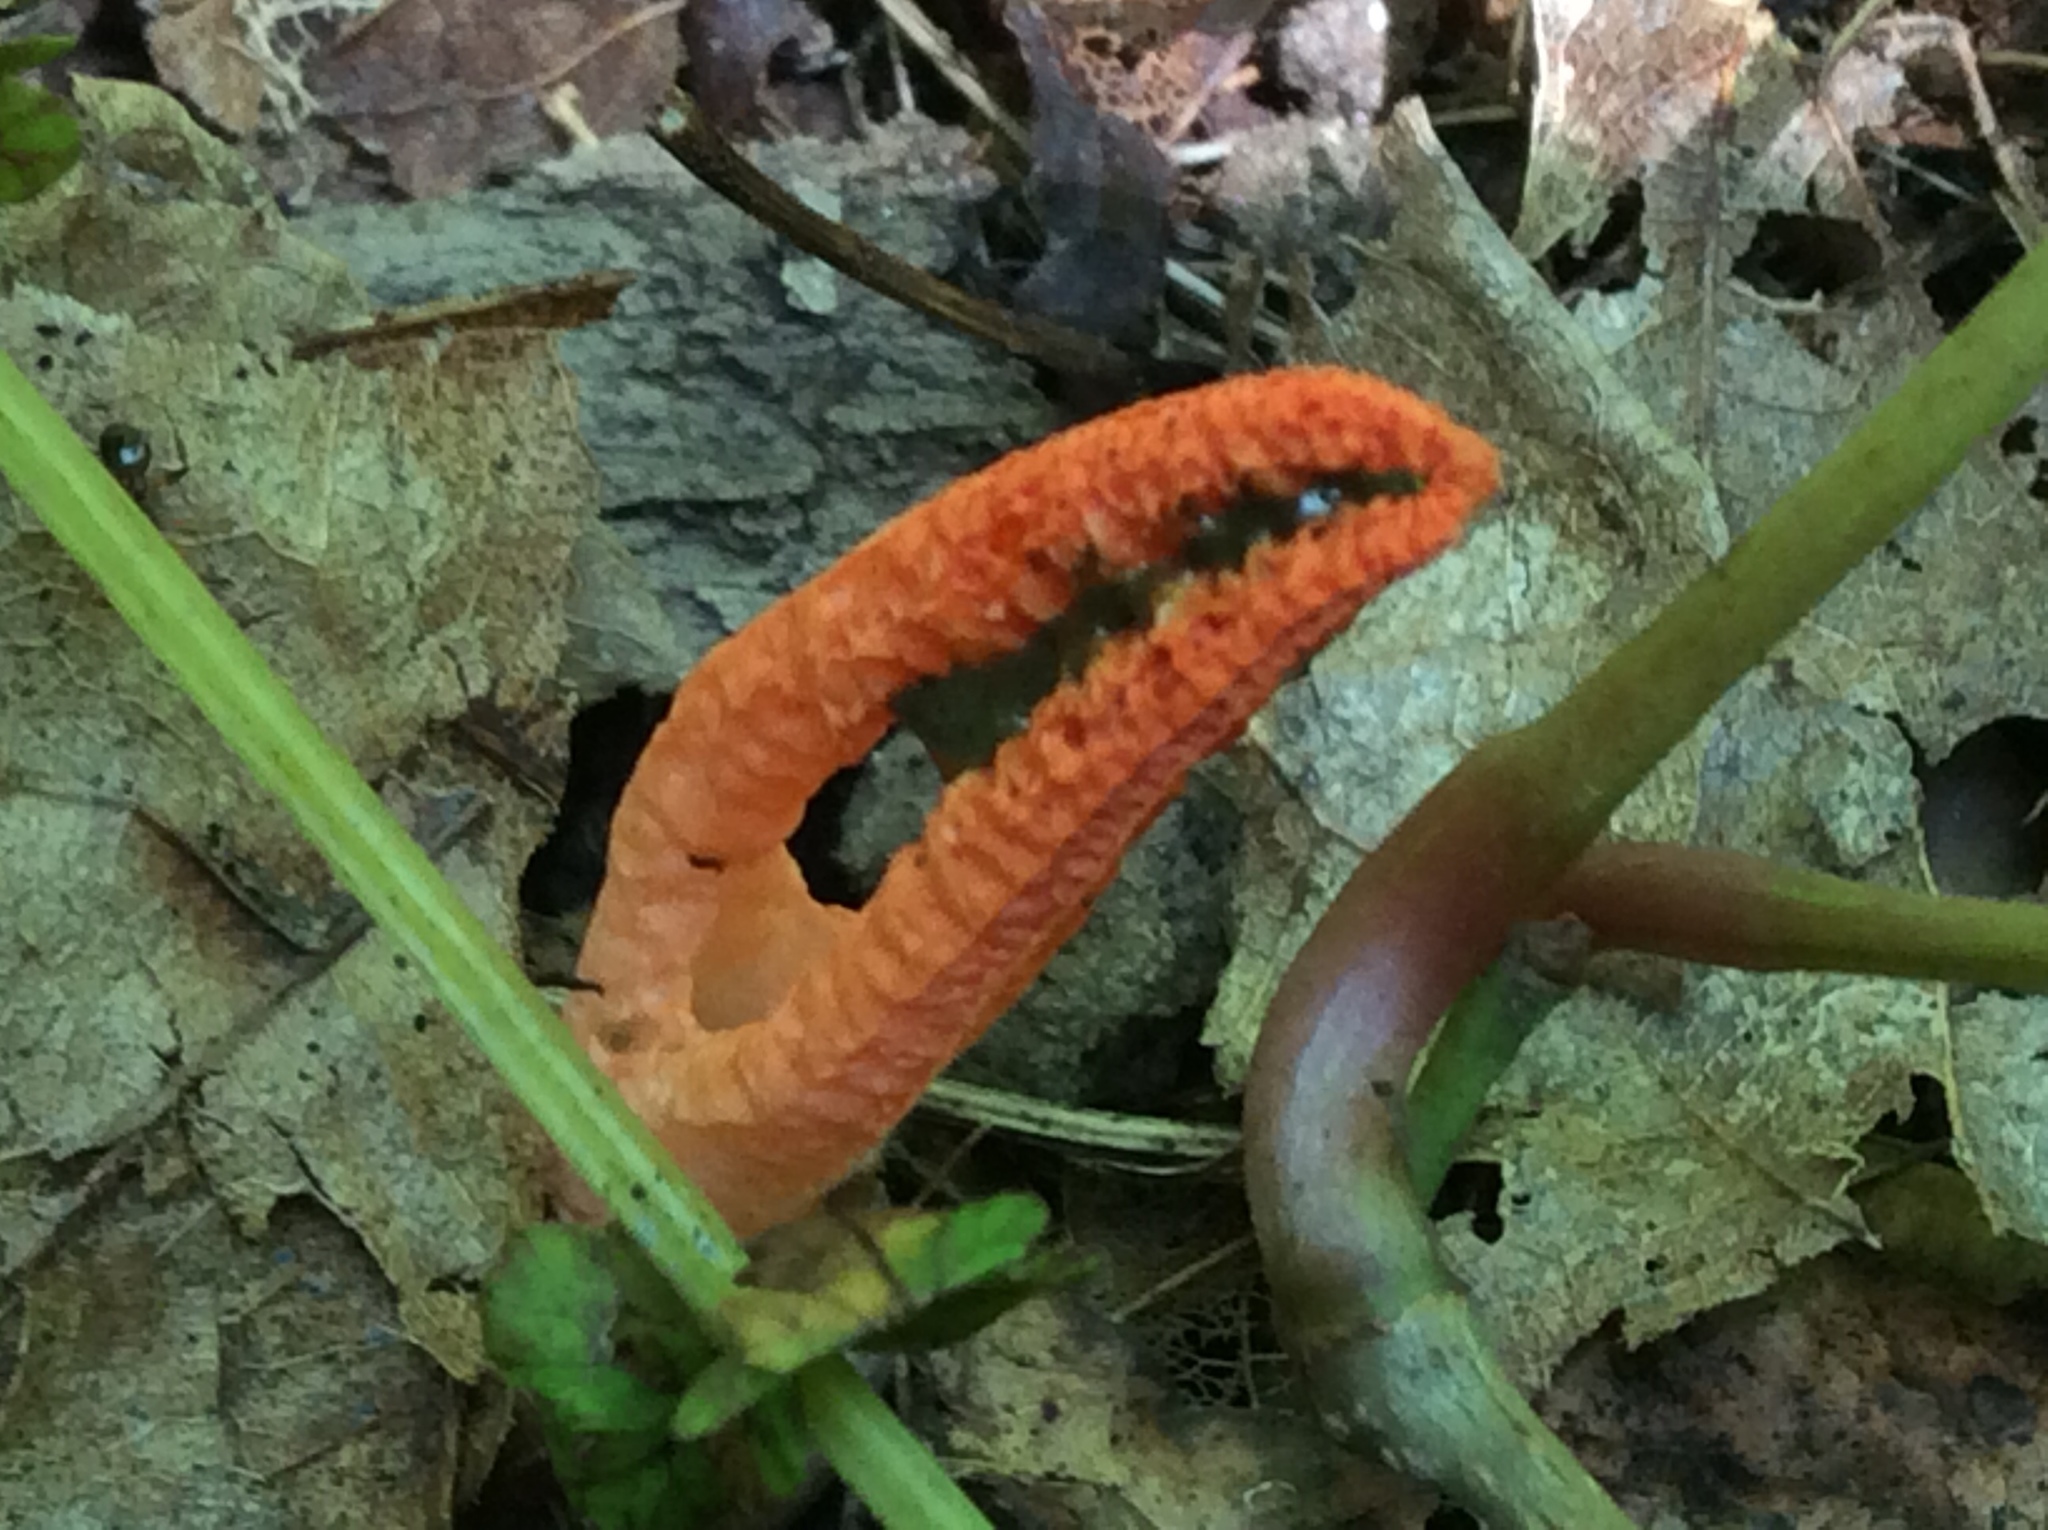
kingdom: Fungi
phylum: Basidiomycota
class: Agaricomycetes
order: Phallales
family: Phallaceae
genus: Pseudocolus
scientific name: Pseudocolus fusiformis
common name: Stinky squid
